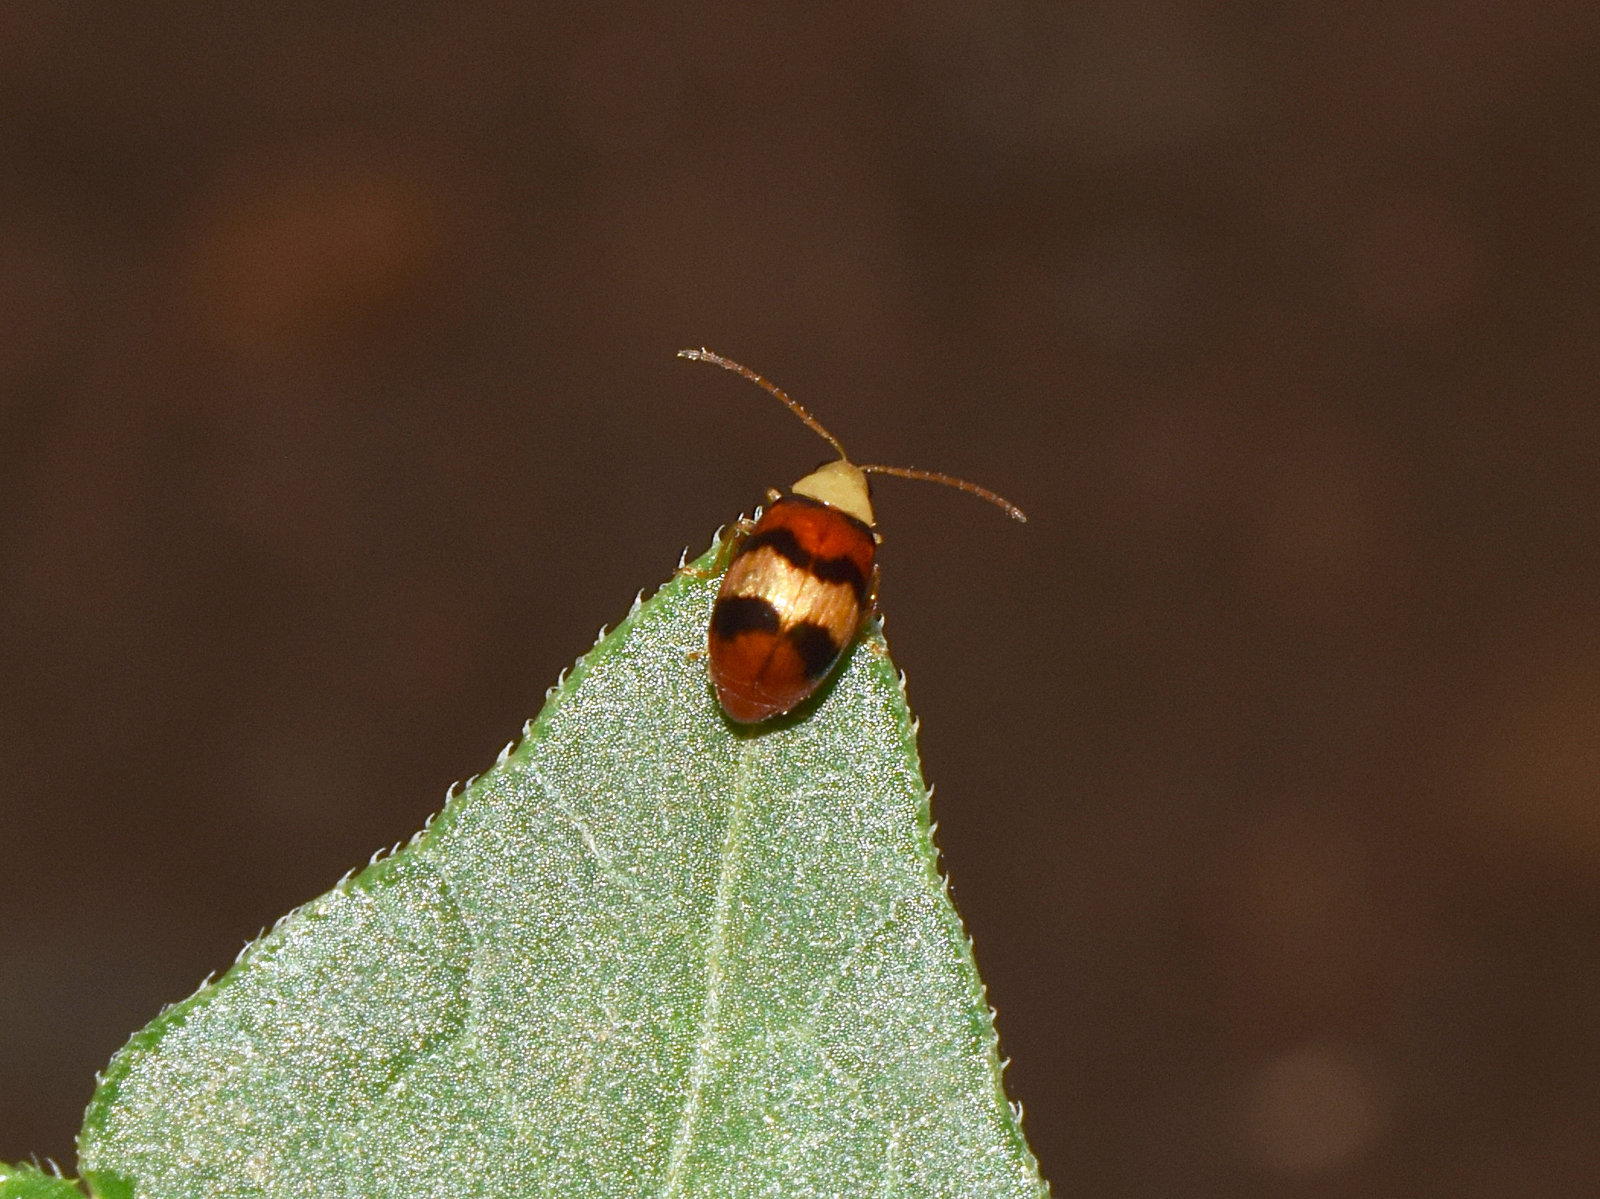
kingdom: Animalia
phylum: Arthropoda
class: Insecta
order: Coleoptera
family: Chrysomelidae
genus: Monolepta
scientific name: Monolepta
